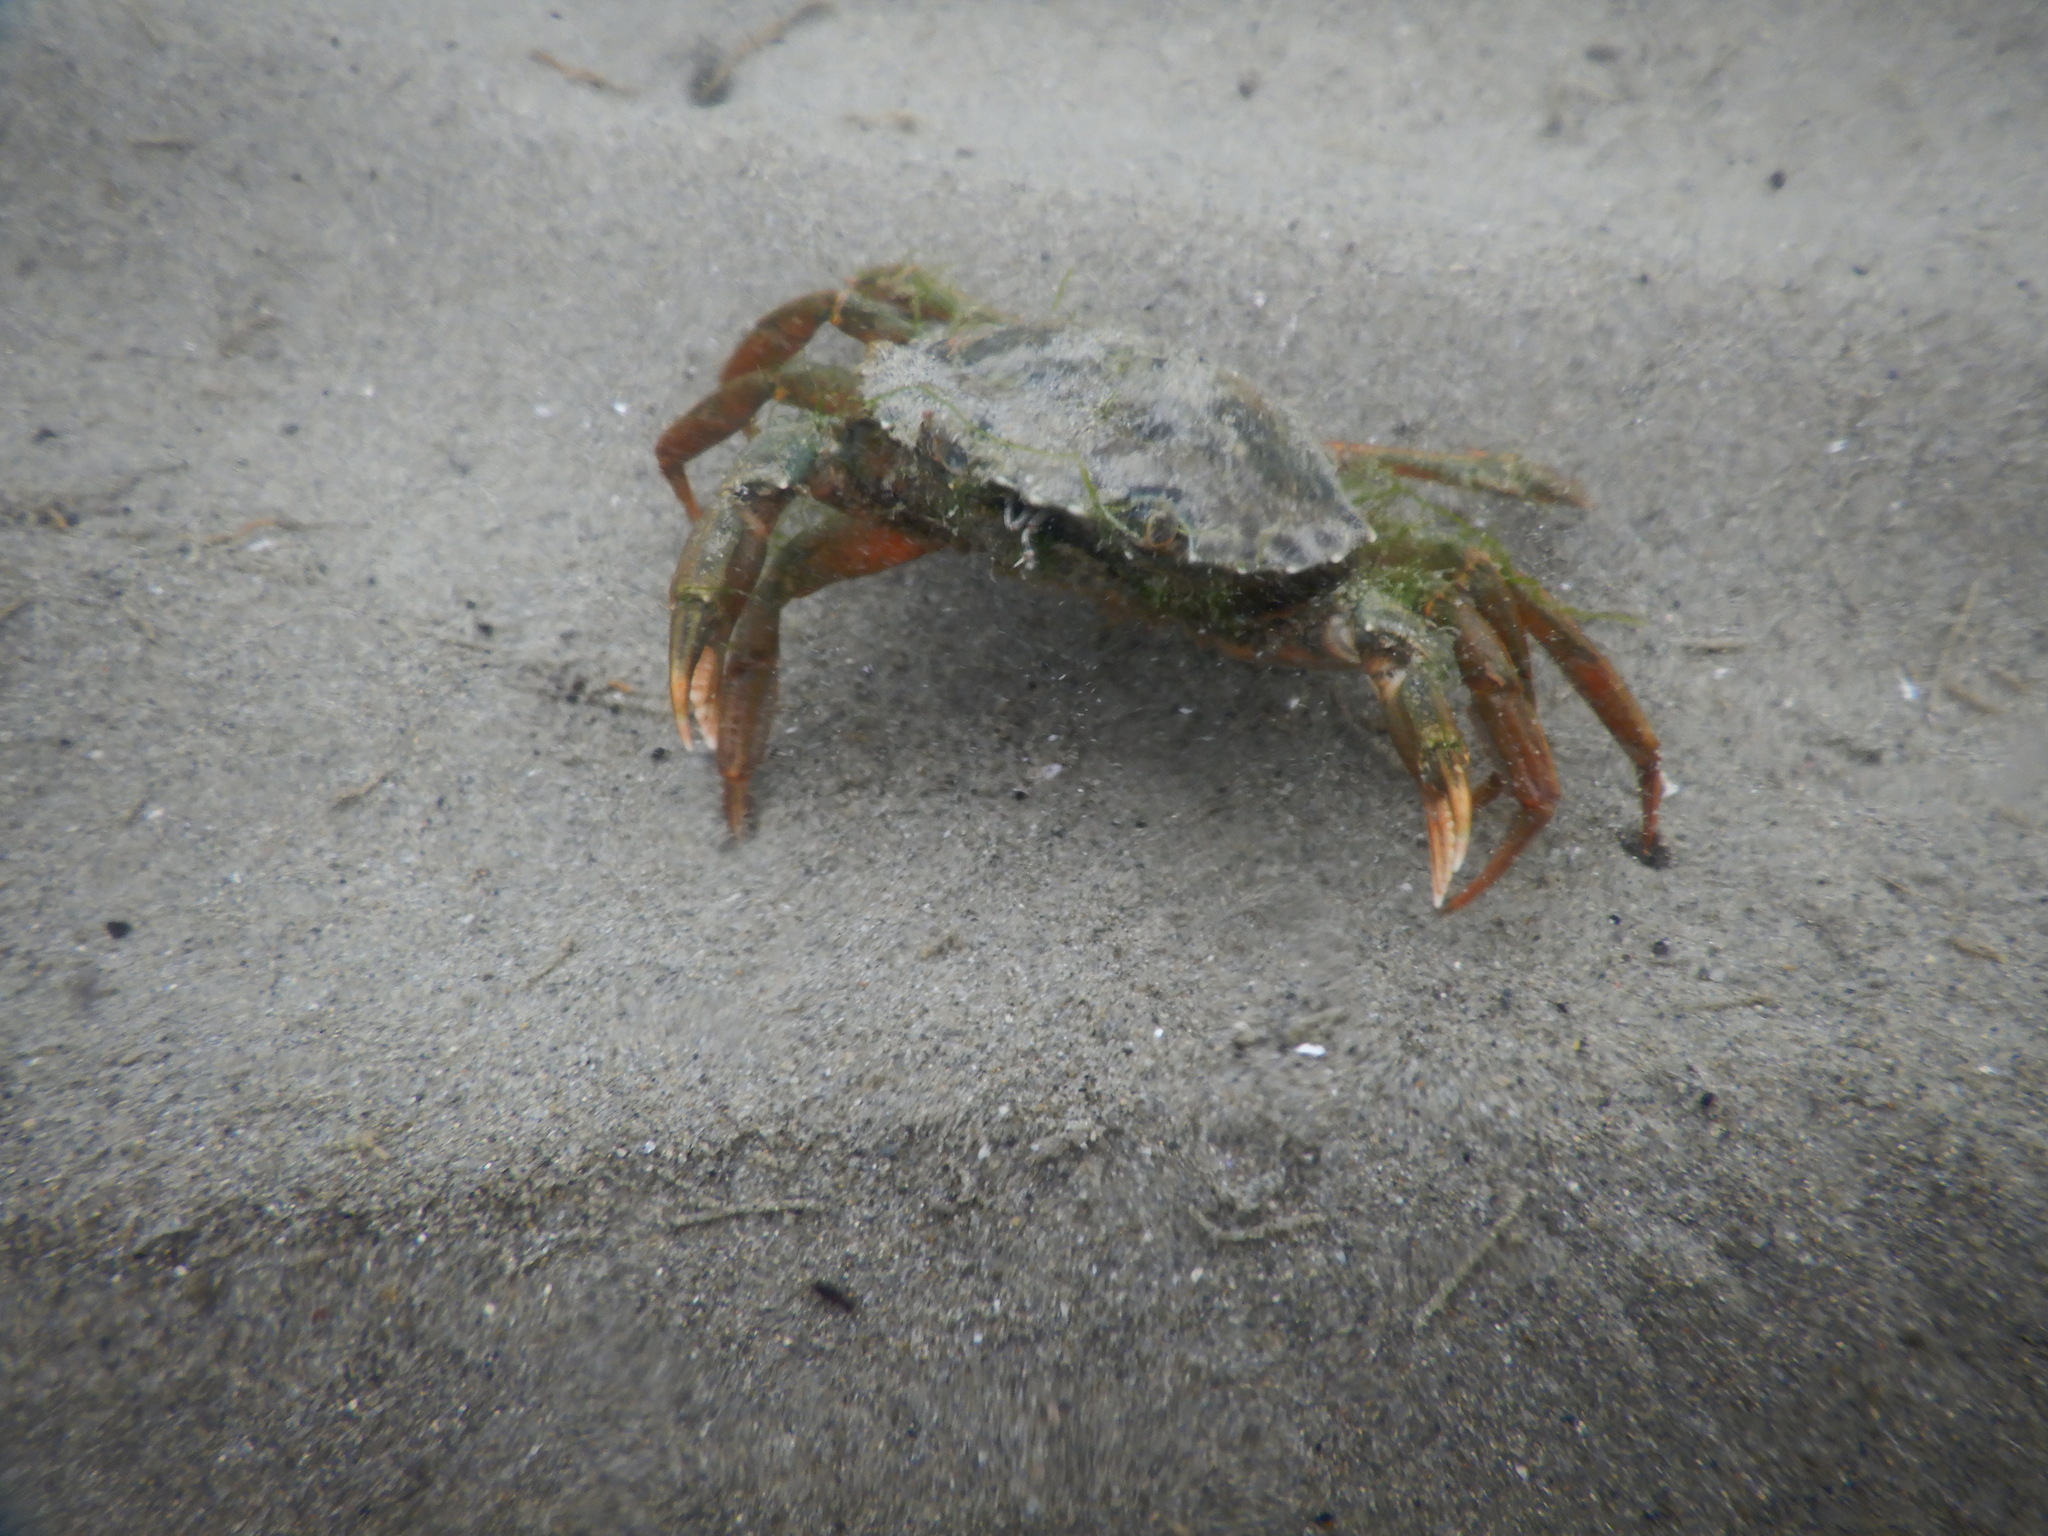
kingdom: Animalia
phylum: Arthropoda
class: Malacostraca
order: Decapoda
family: Carcinidae
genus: Carcinus
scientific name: Carcinus aestuarii
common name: Mediterranean green crab
